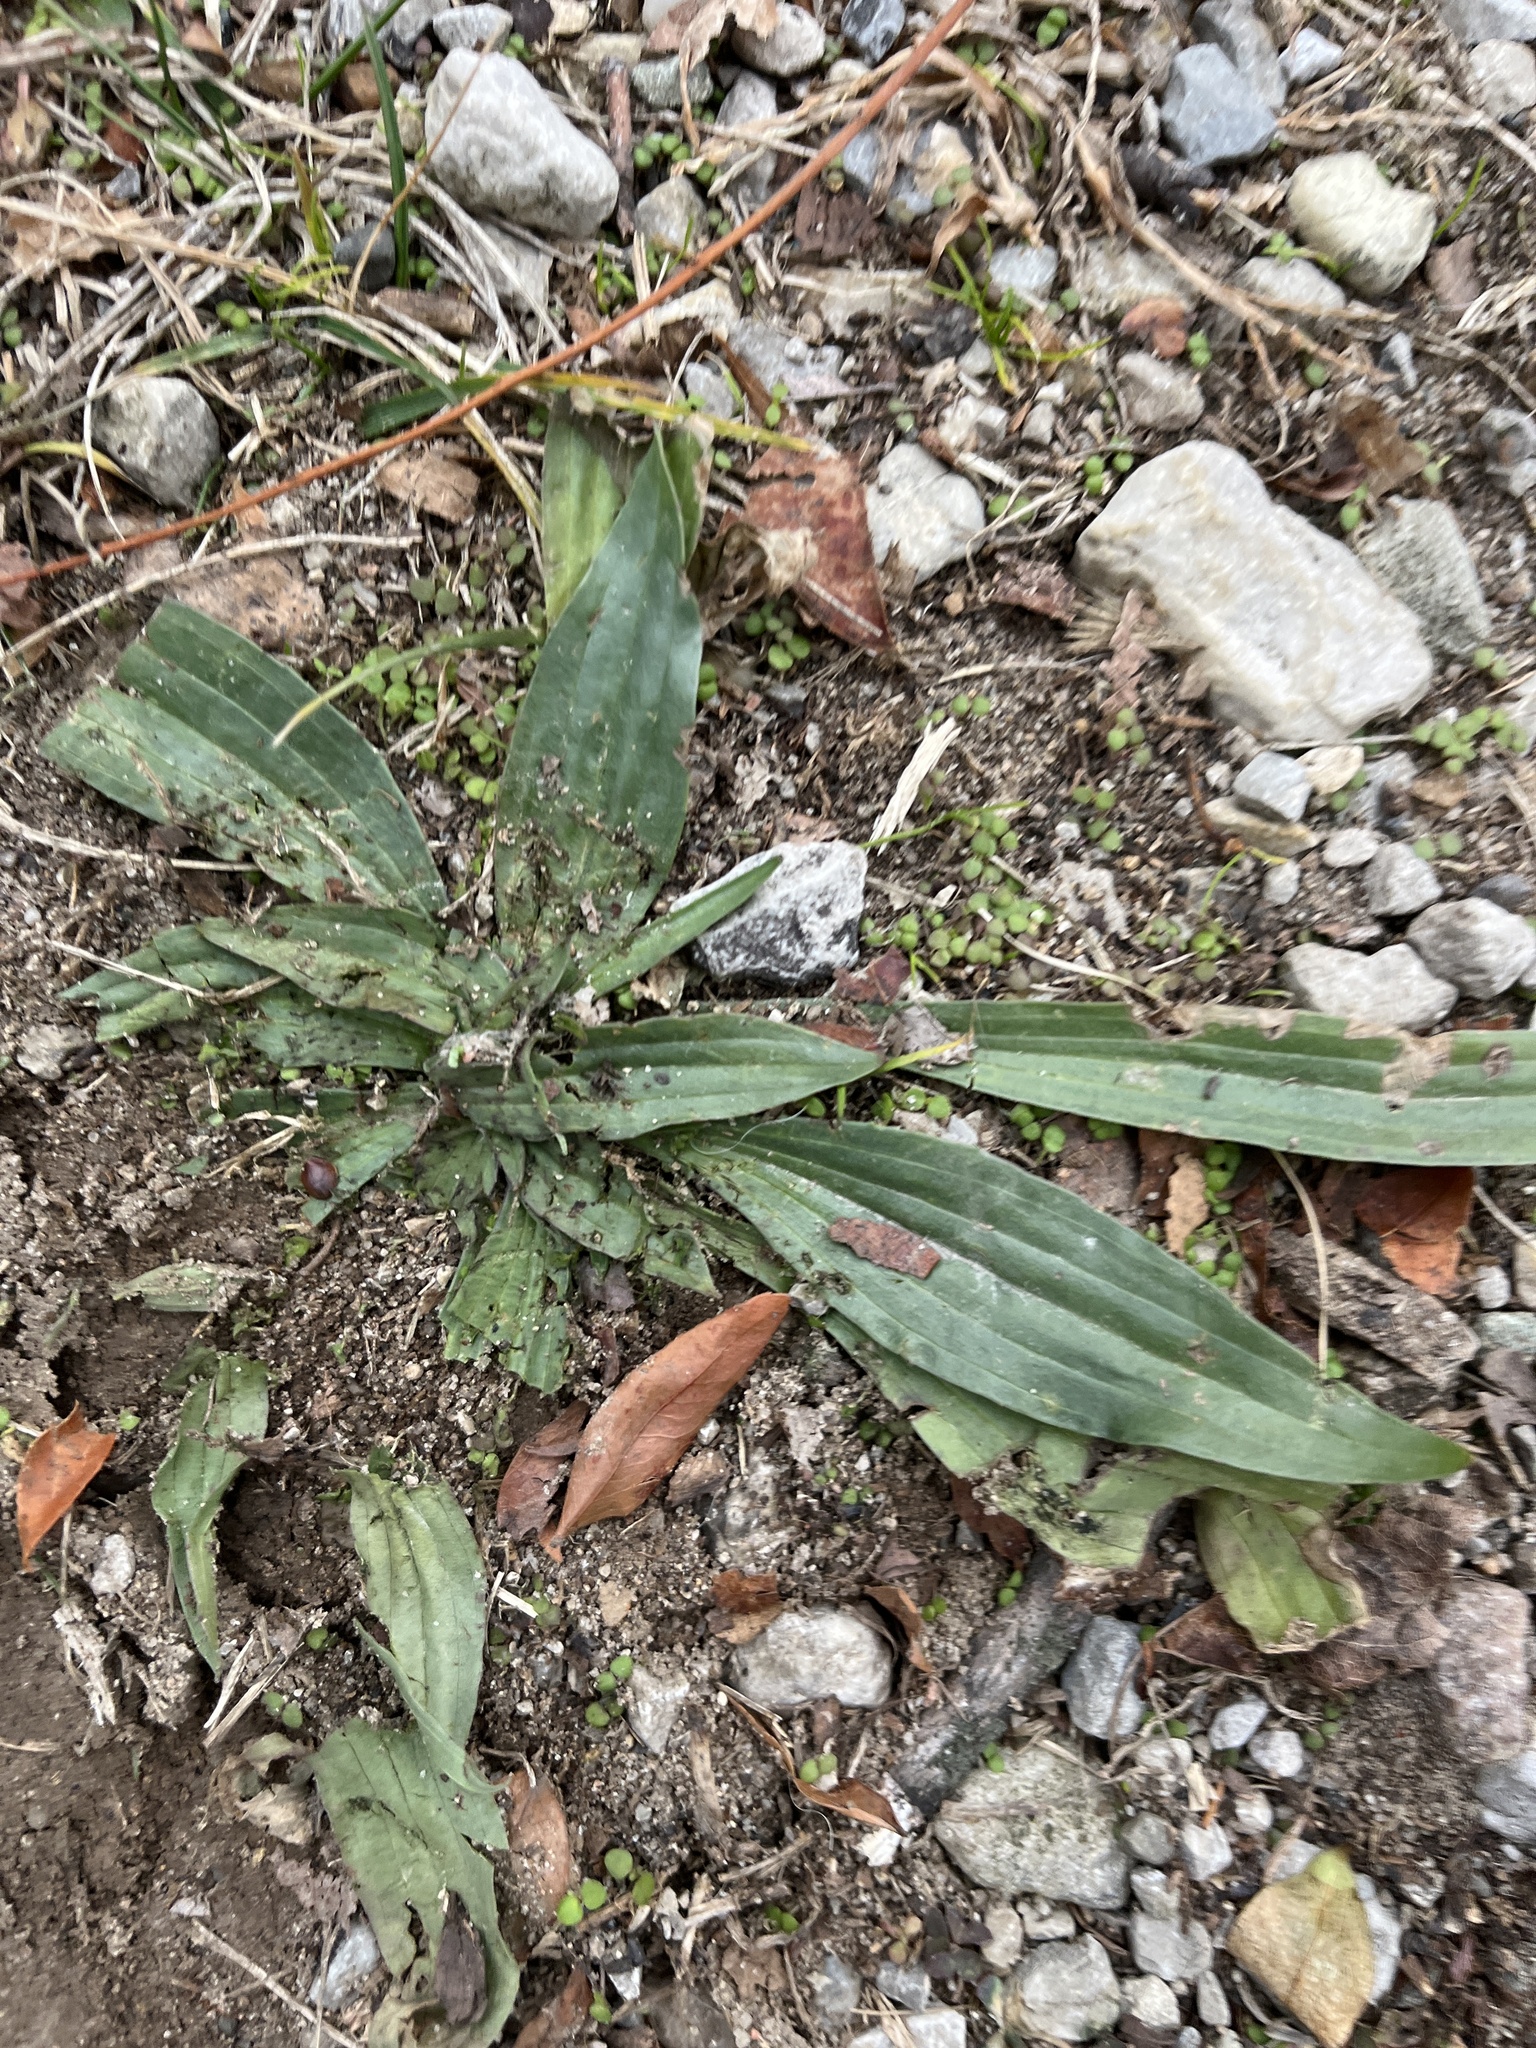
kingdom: Plantae
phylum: Tracheophyta
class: Magnoliopsida
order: Lamiales
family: Plantaginaceae
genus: Plantago
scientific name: Plantago lanceolata
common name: Ribwort plantain
